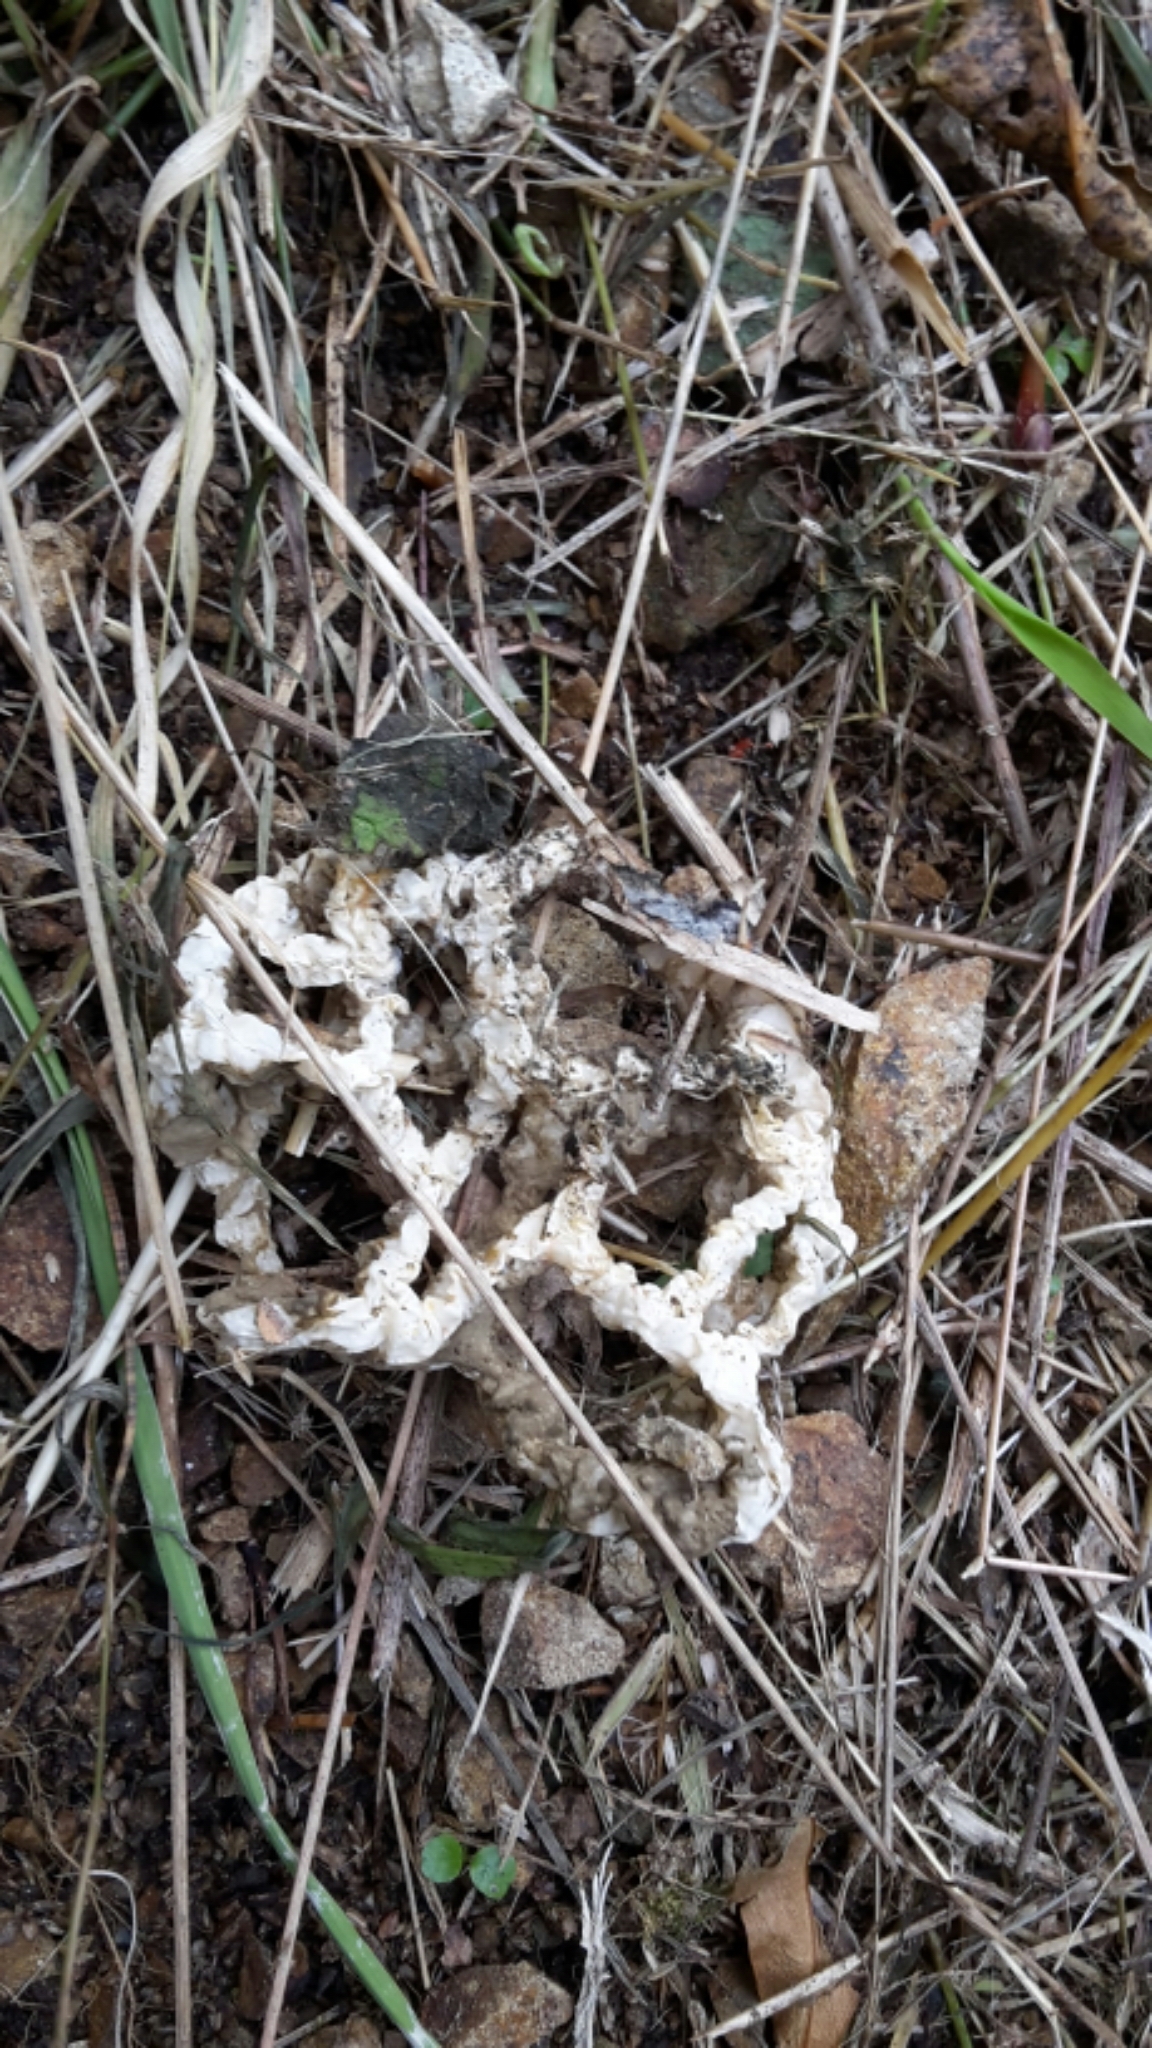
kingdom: Fungi
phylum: Basidiomycota
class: Agaricomycetes
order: Phallales
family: Phallaceae
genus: Ileodictyon
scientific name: Ileodictyon cibarium
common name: Basket fungus
